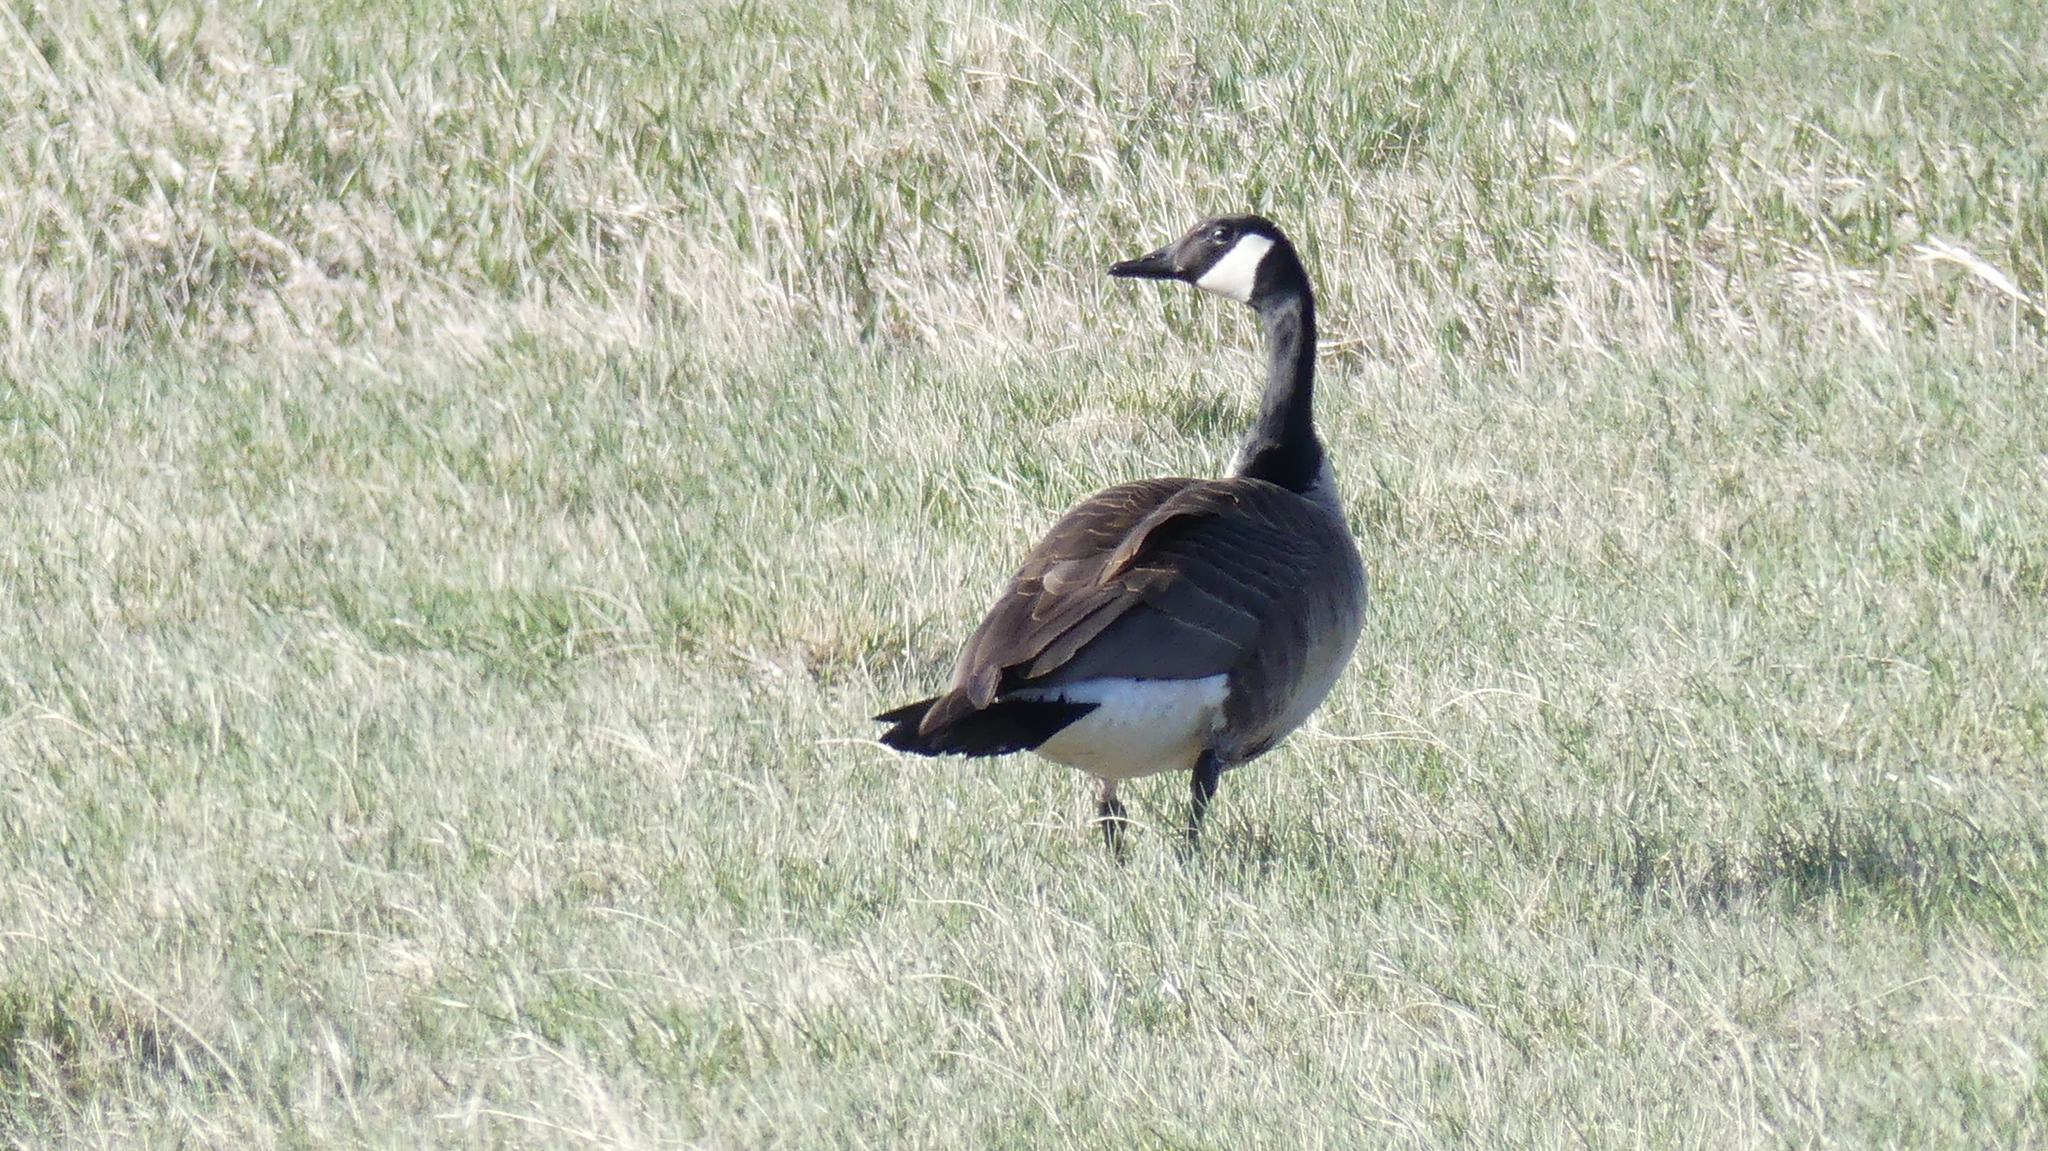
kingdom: Animalia
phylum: Chordata
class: Aves
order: Anseriformes
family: Anatidae
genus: Branta
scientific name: Branta canadensis
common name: Canada goose
